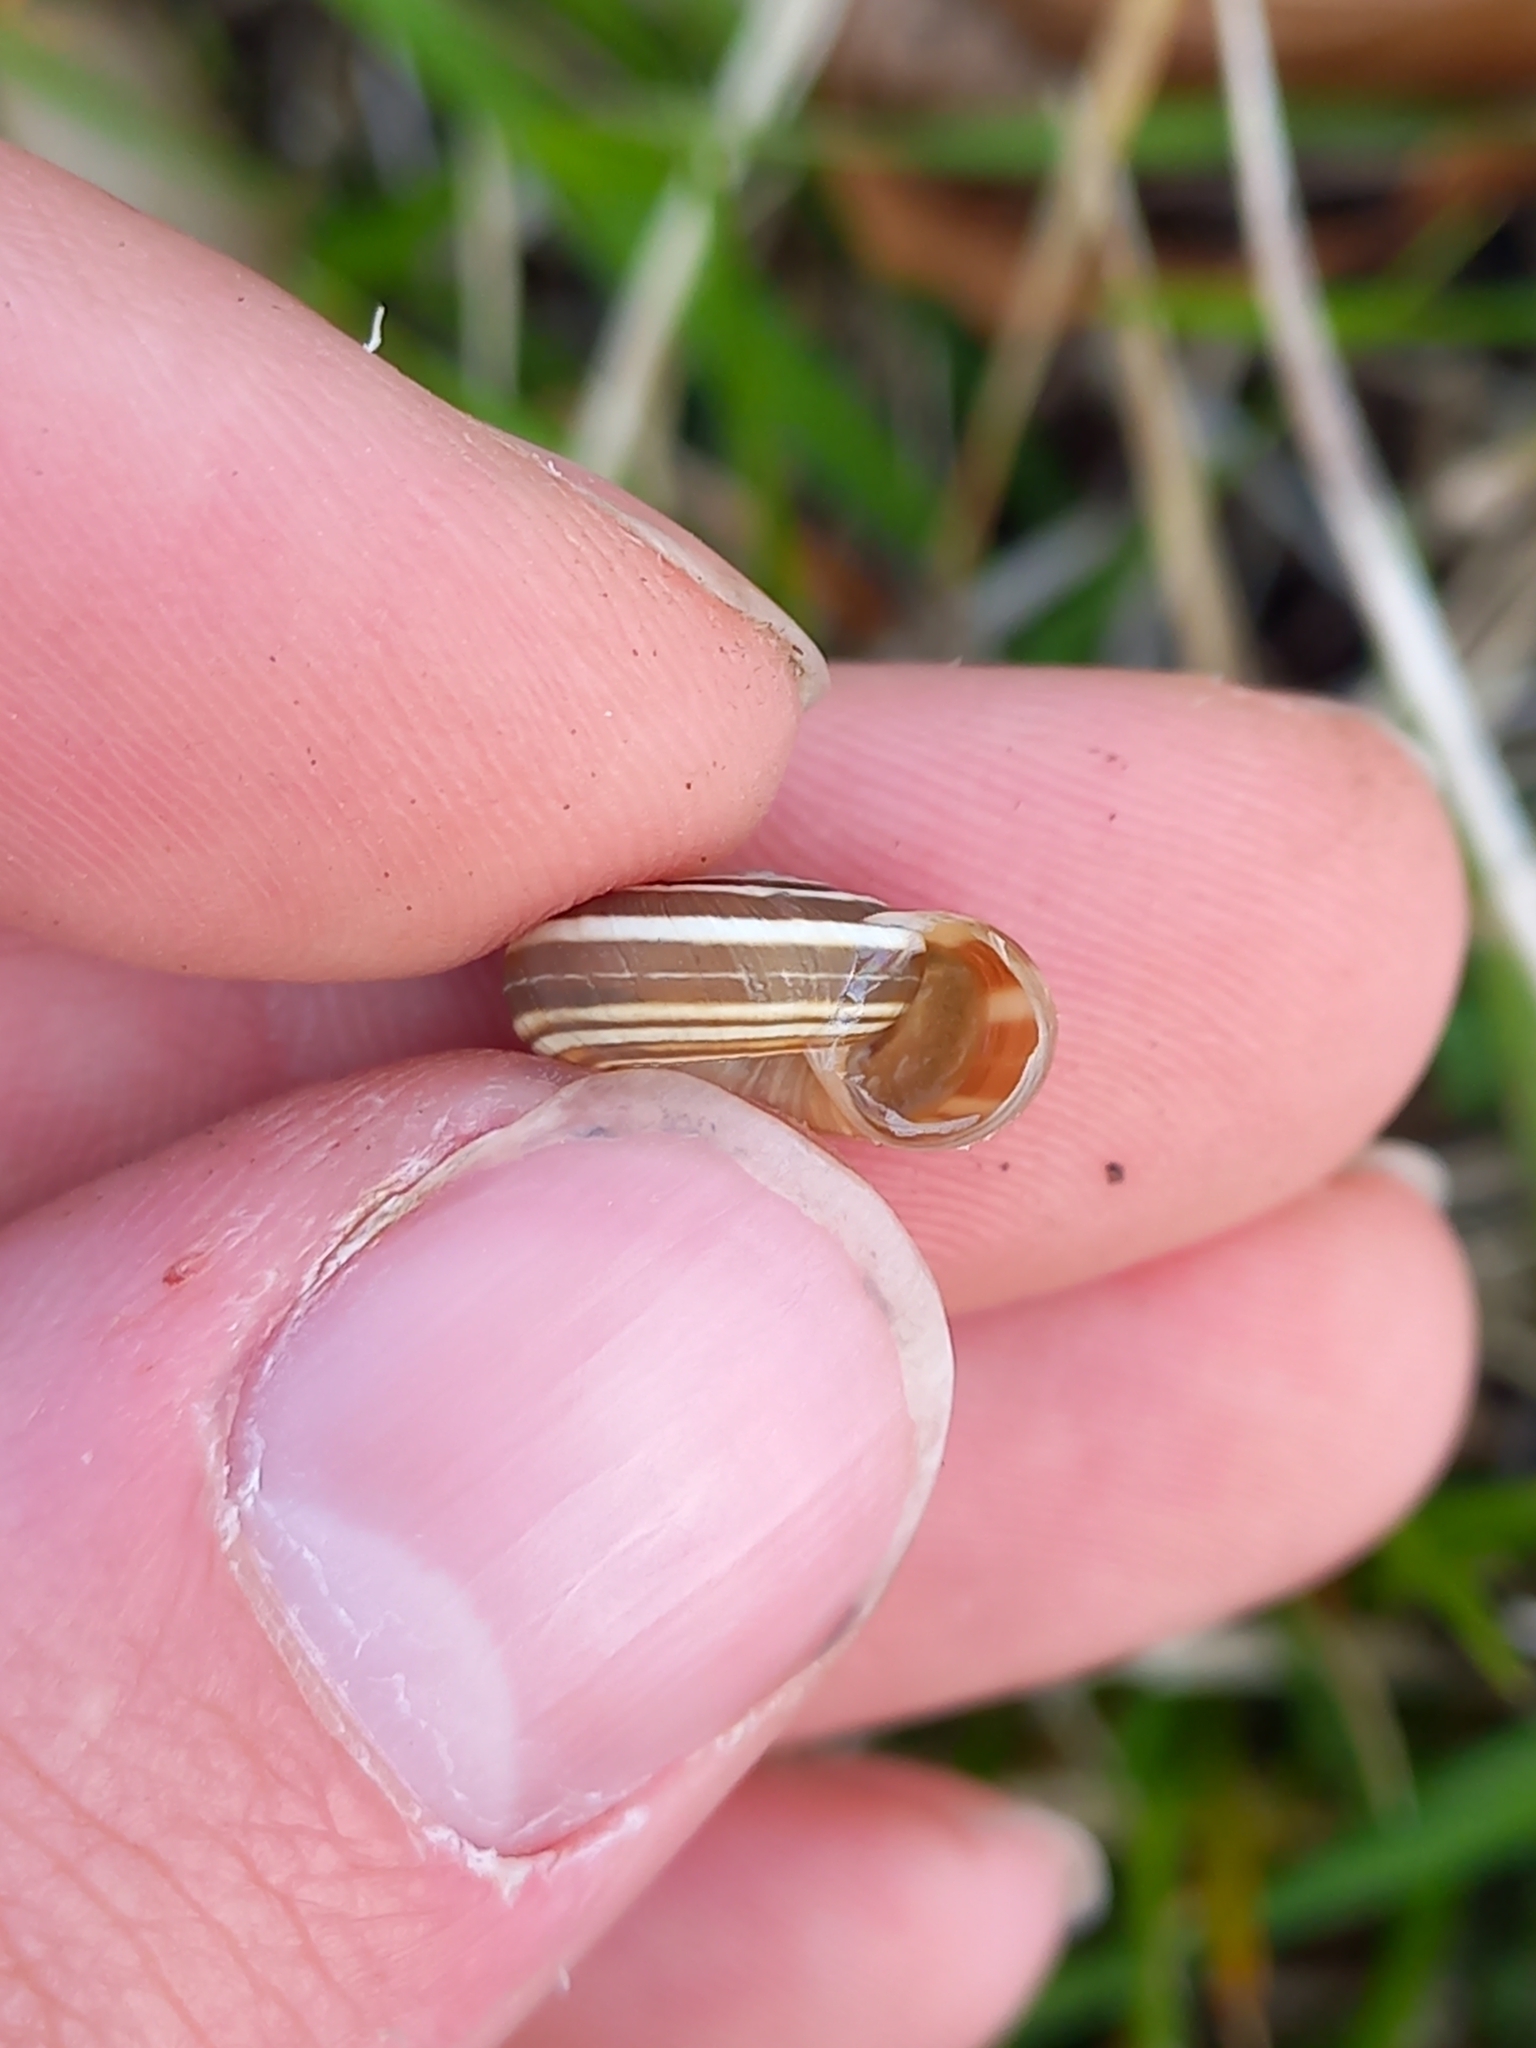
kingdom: Animalia
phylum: Mollusca
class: Gastropoda
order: Stylommatophora
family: Geomitridae
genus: Helicella
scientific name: Helicella itala
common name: Heath snail
